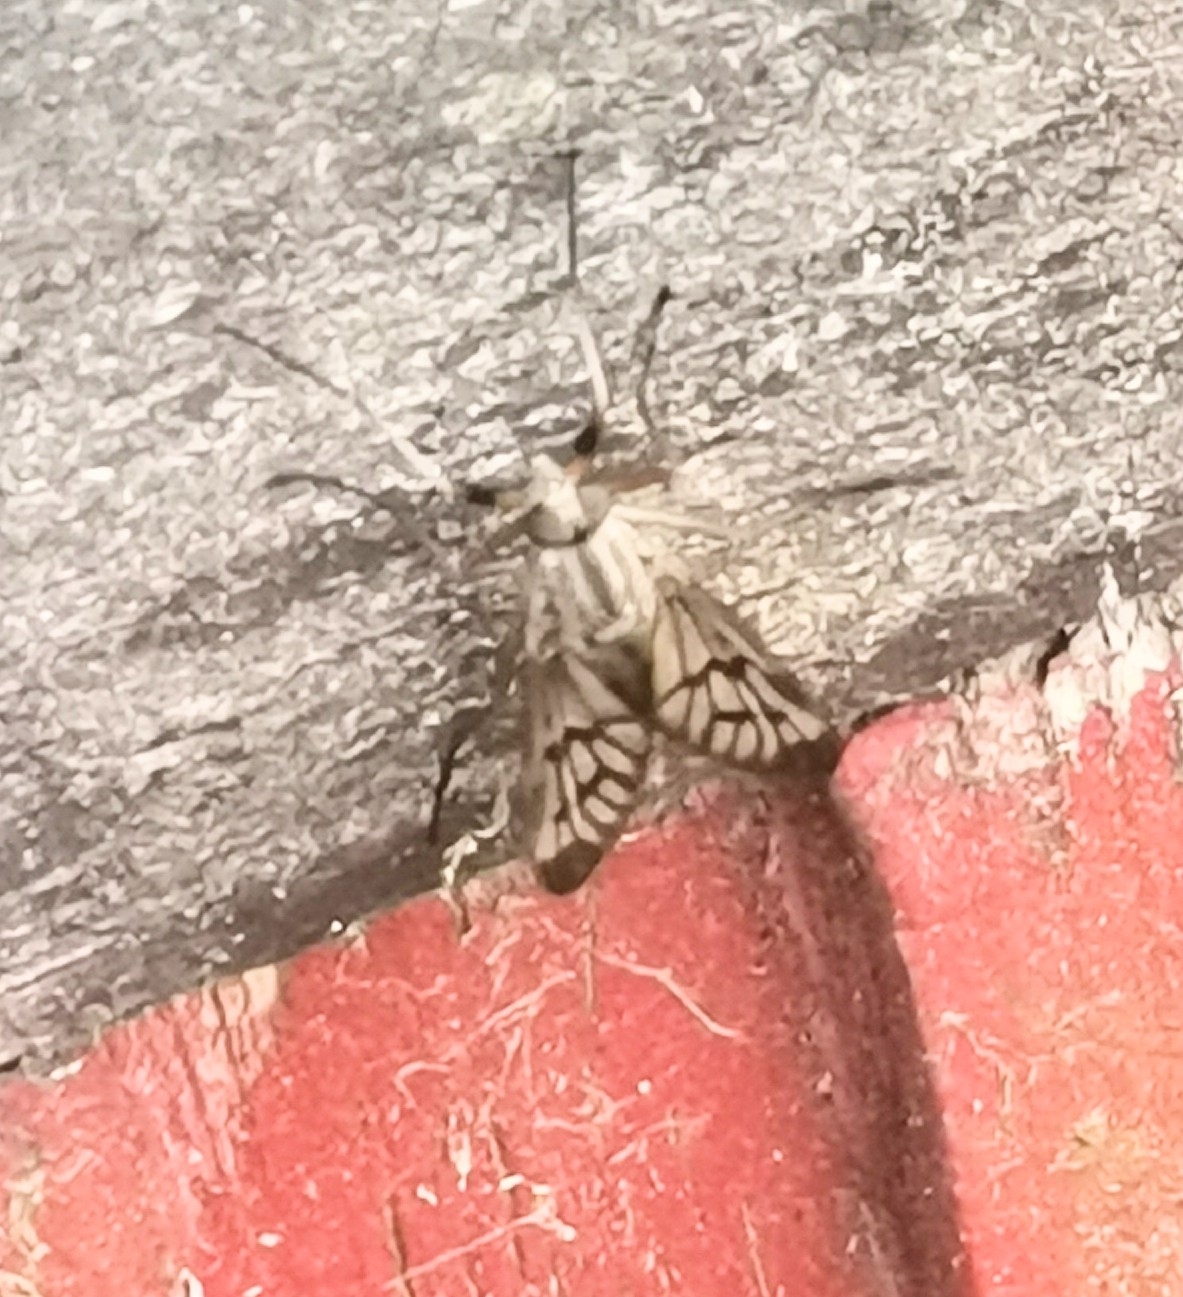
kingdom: Animalia
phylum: Arthropoda
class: Insecta
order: Diptera
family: Rhagionidae
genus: Rhagio
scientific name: Rhagio scolopacea
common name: Downlooker snipefly
